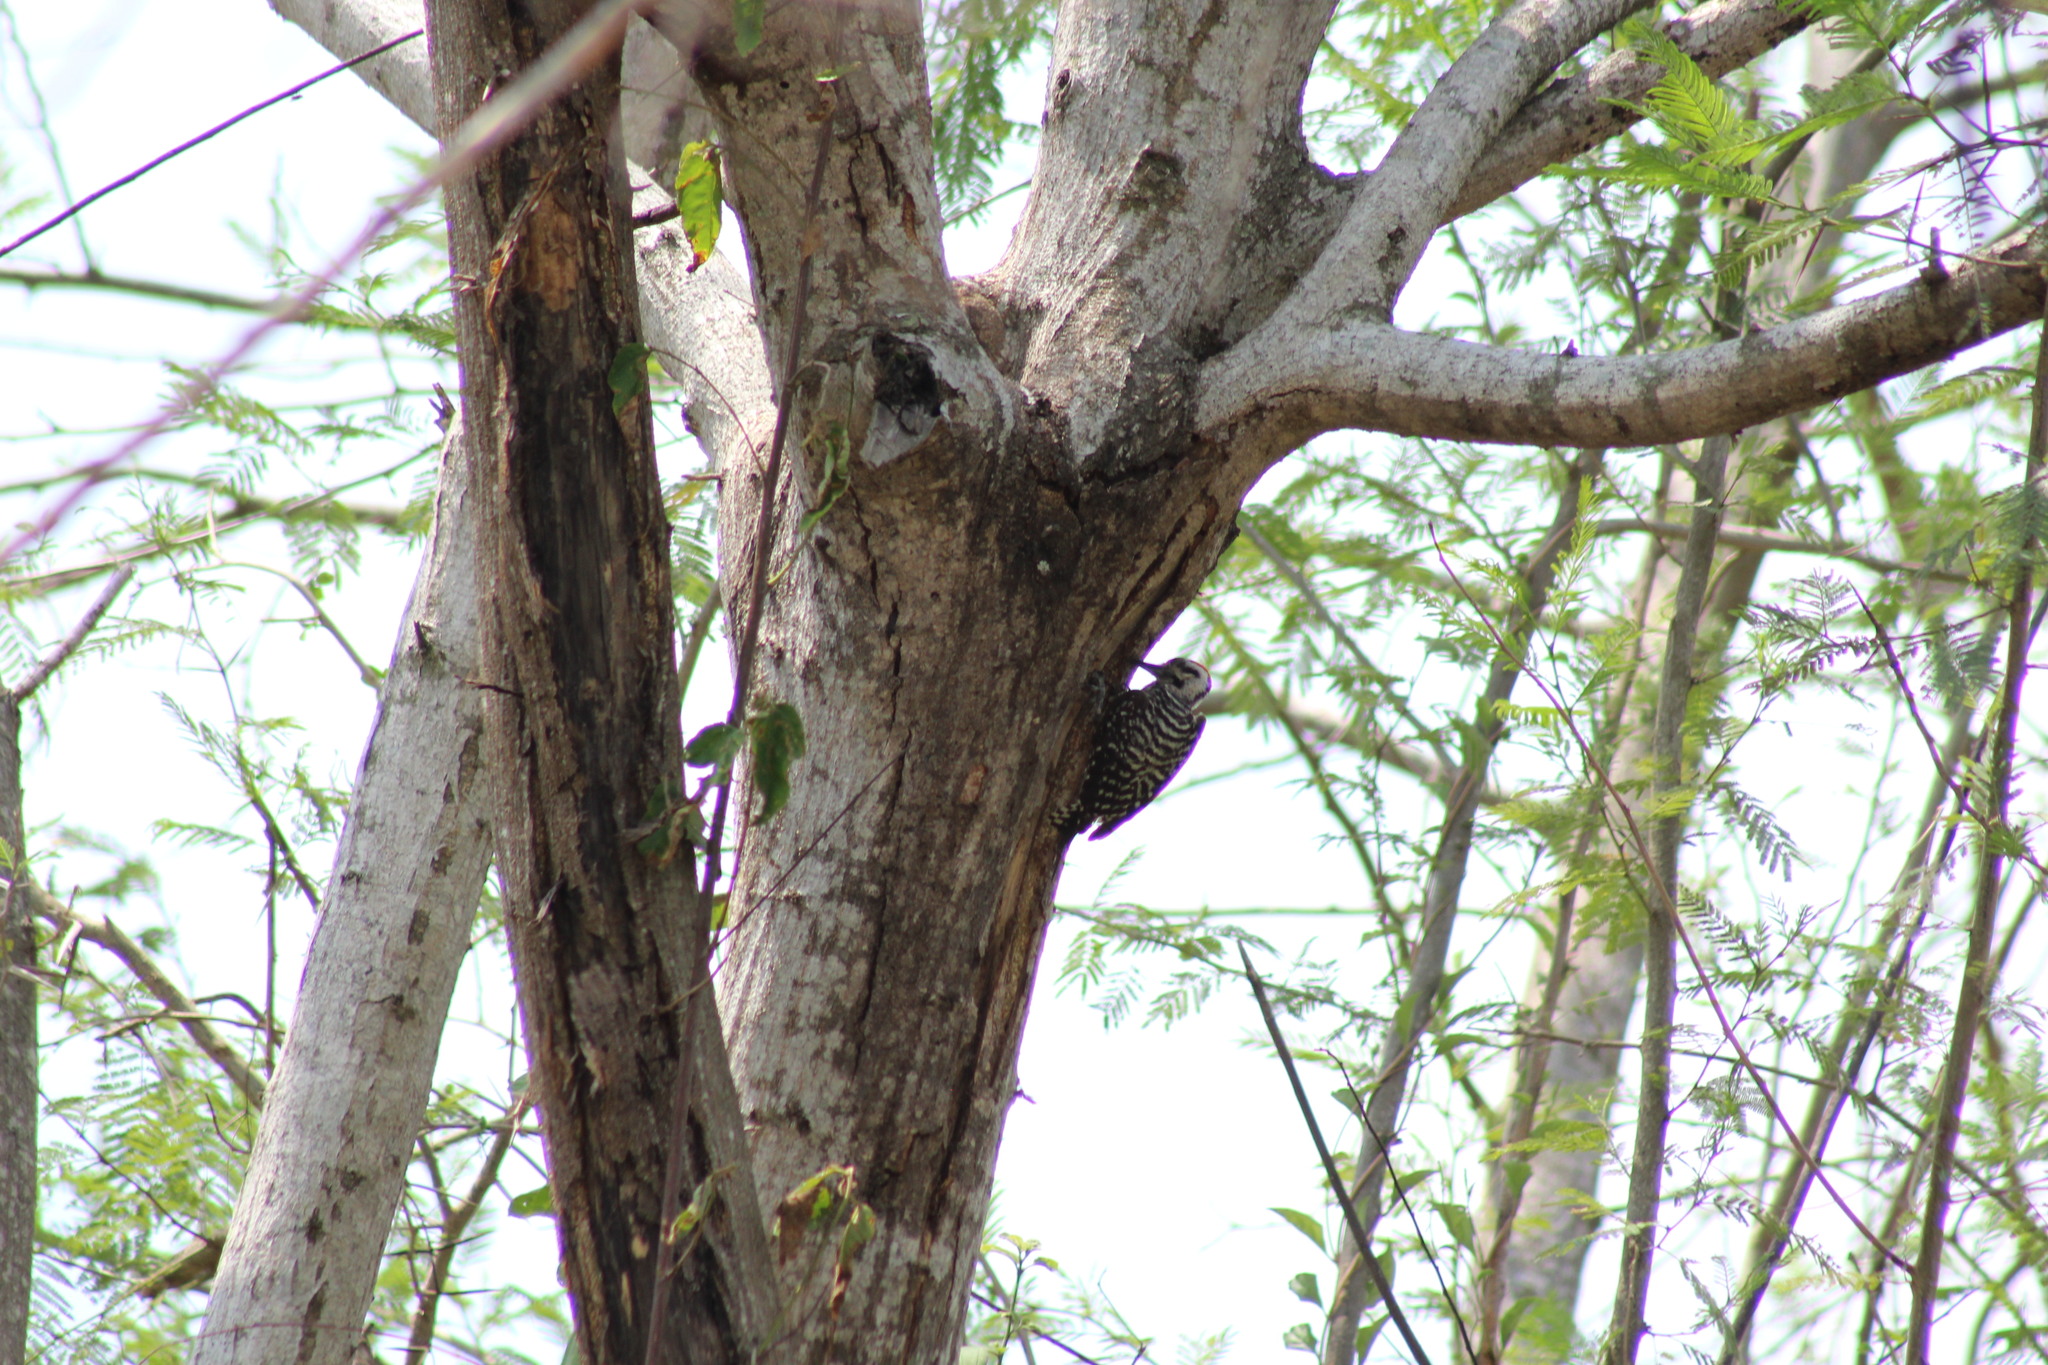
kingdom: Animalia
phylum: Chordata
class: Aves
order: Piciformes
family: Picidae
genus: Dryobates
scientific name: Dryobates scalaris
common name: Ladder-backed woodpecker
